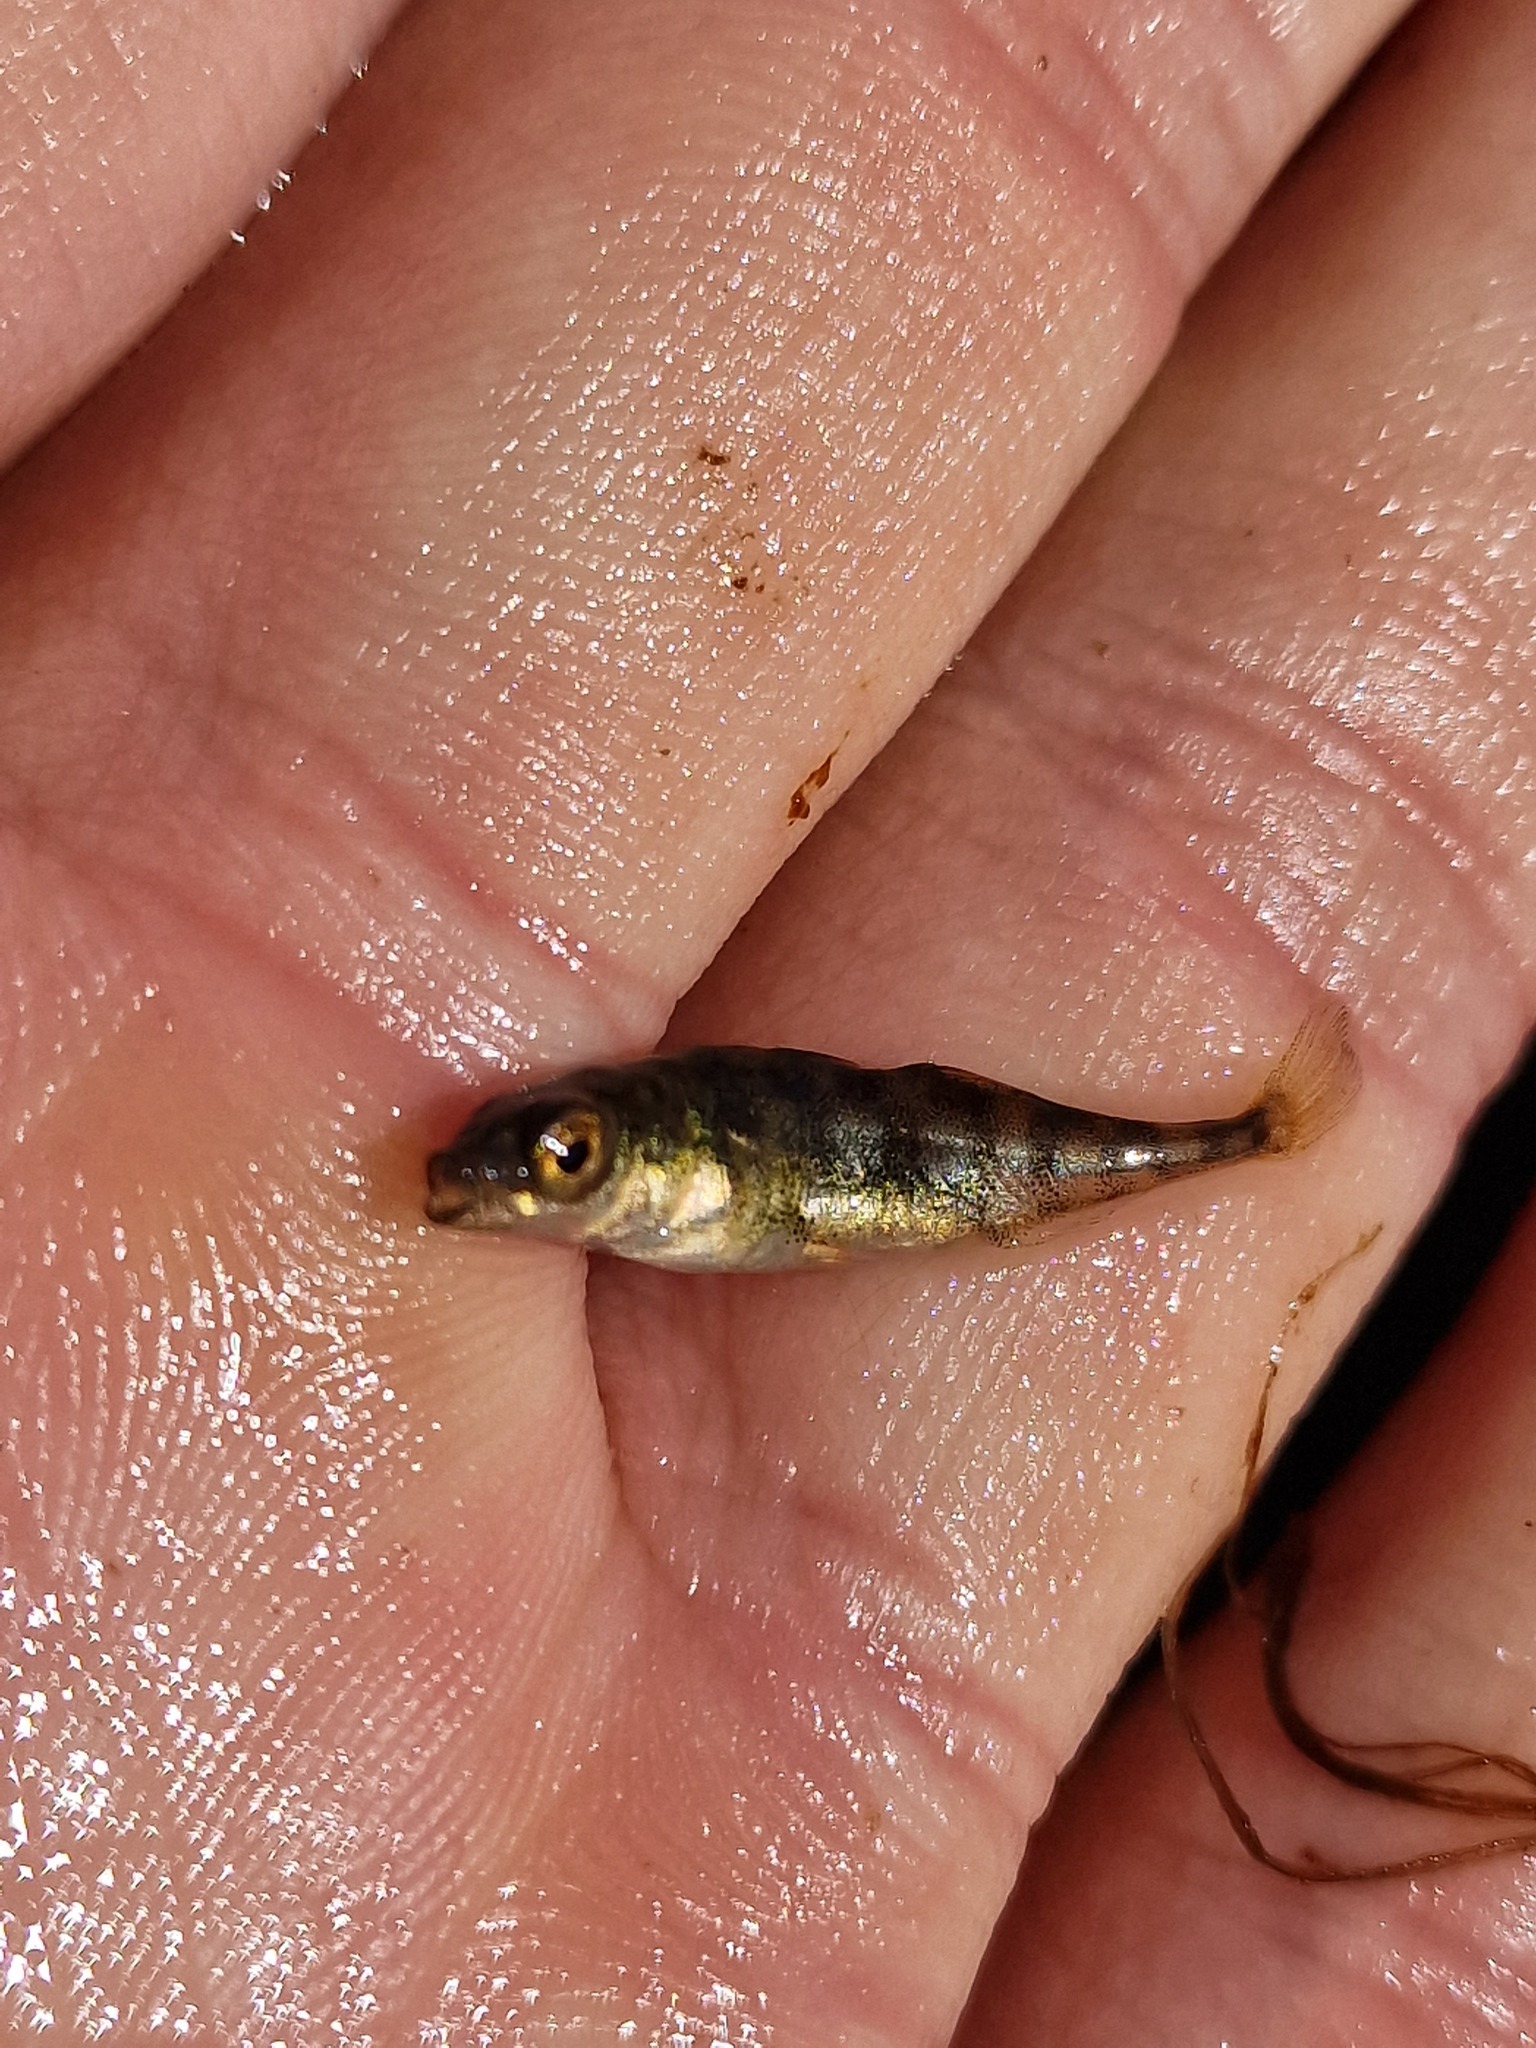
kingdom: Animalia
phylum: Chordata
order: Gasterosteiformes
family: Gasterosteidae
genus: Apeltes
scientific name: Apeltes quadracus
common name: Fourspine stickleback
